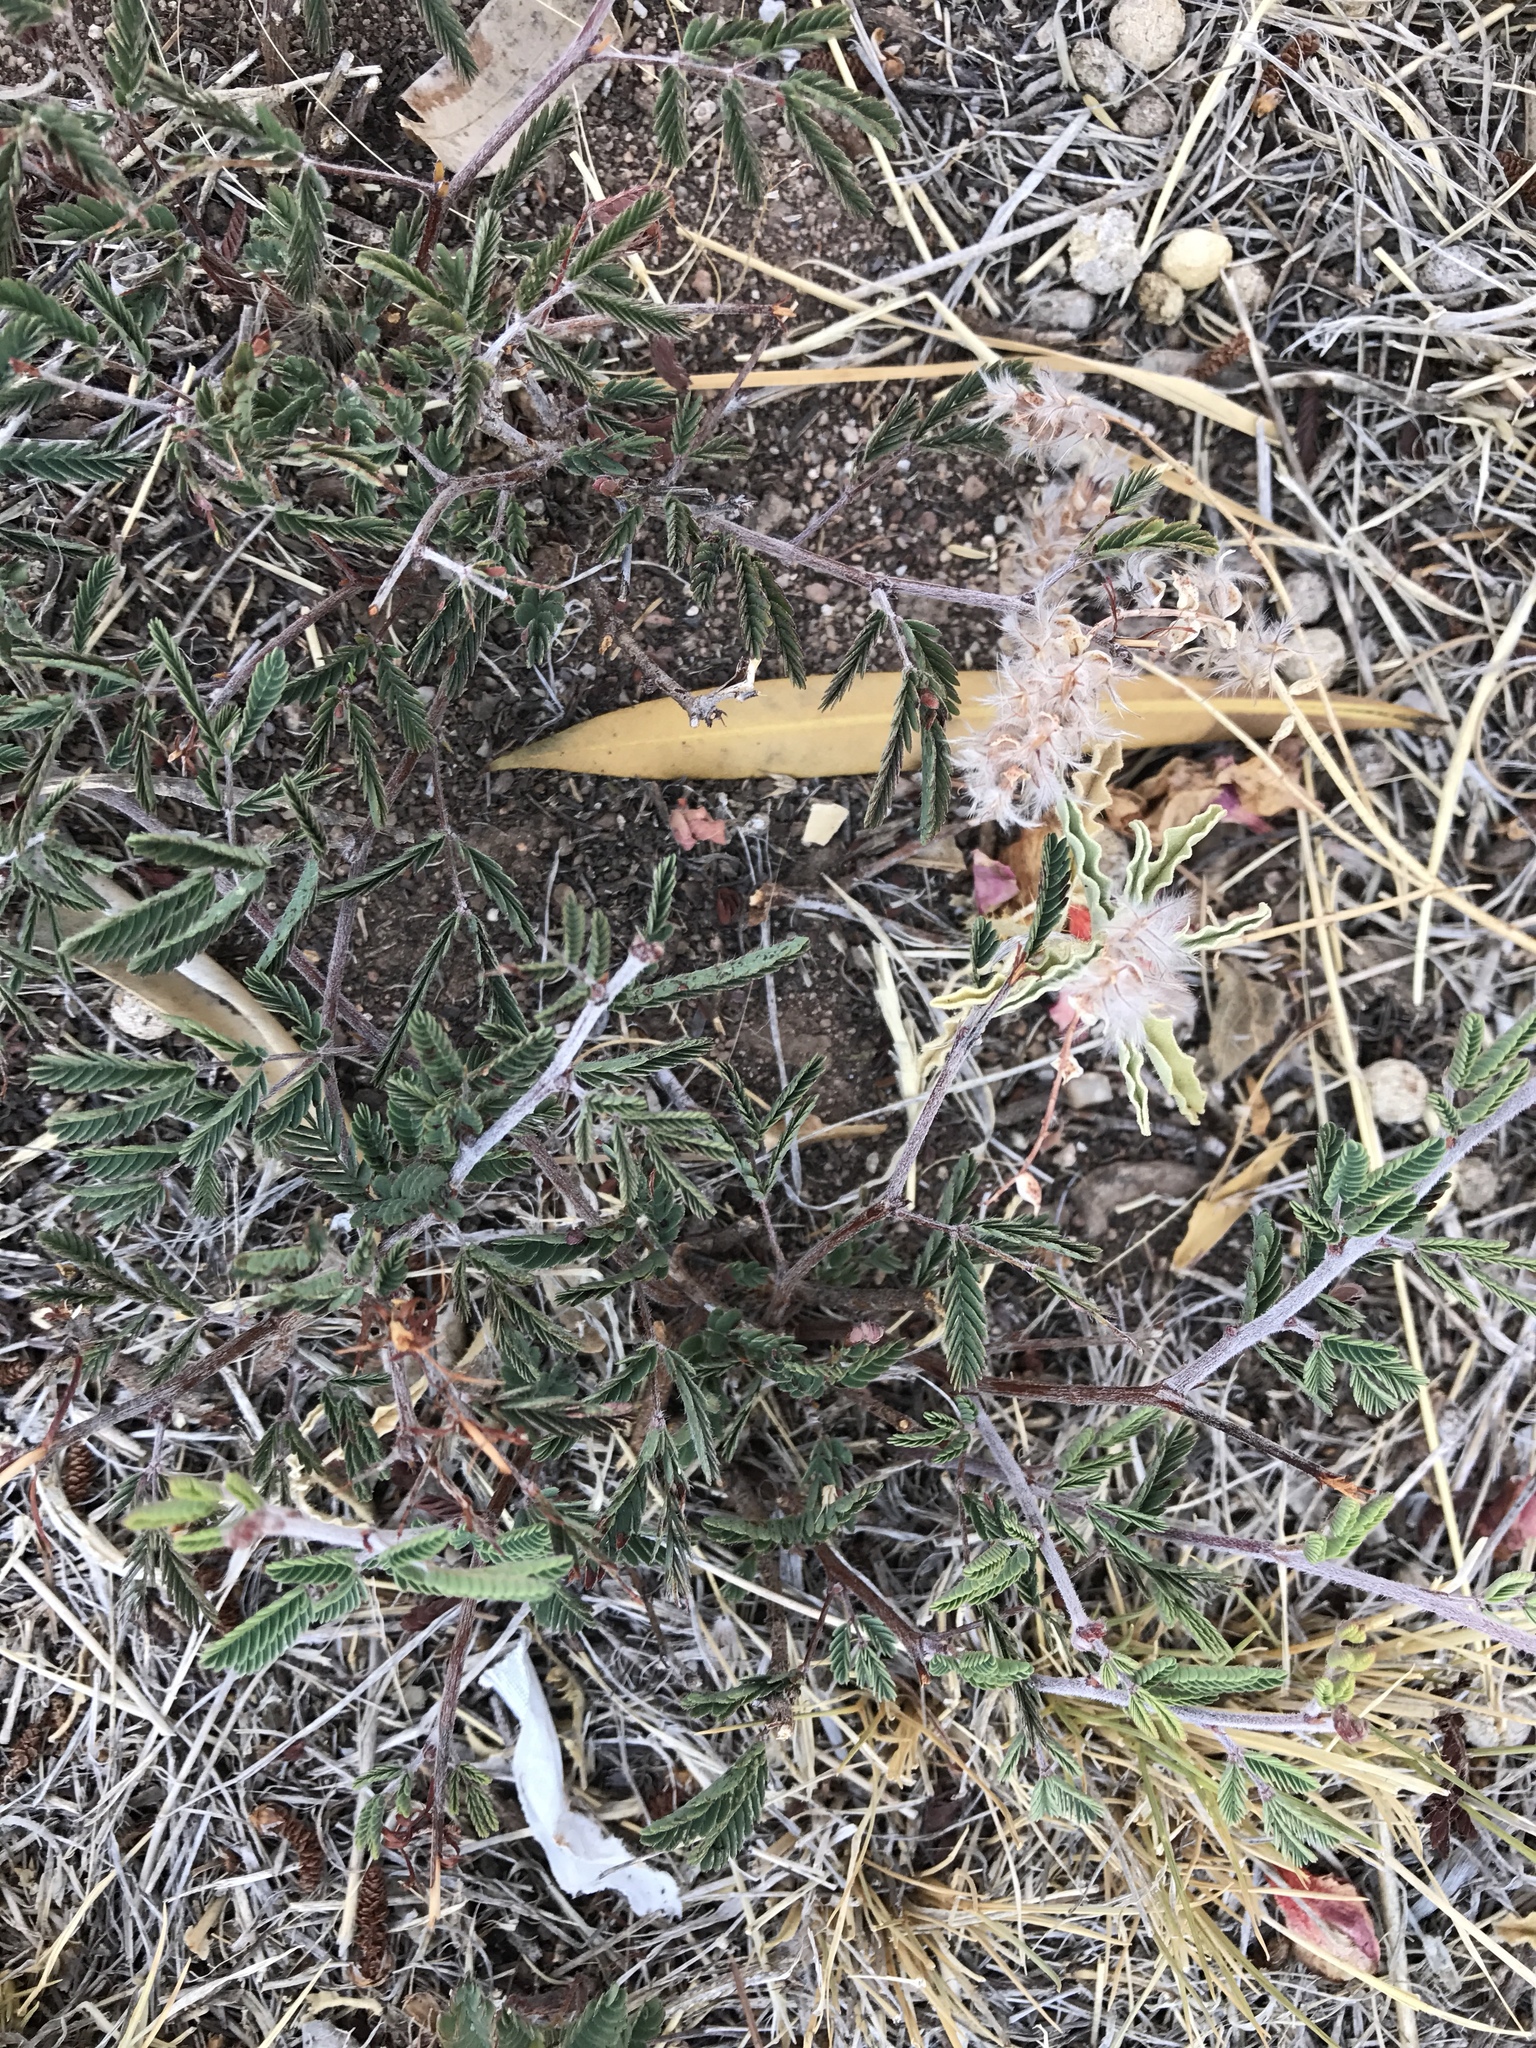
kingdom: Plantae
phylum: Tracheophyta
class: Magnoliopsida
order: Fabales
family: Fabaceae
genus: Calliandra
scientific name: Calliandra eriophylla
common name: Fairy-duster
